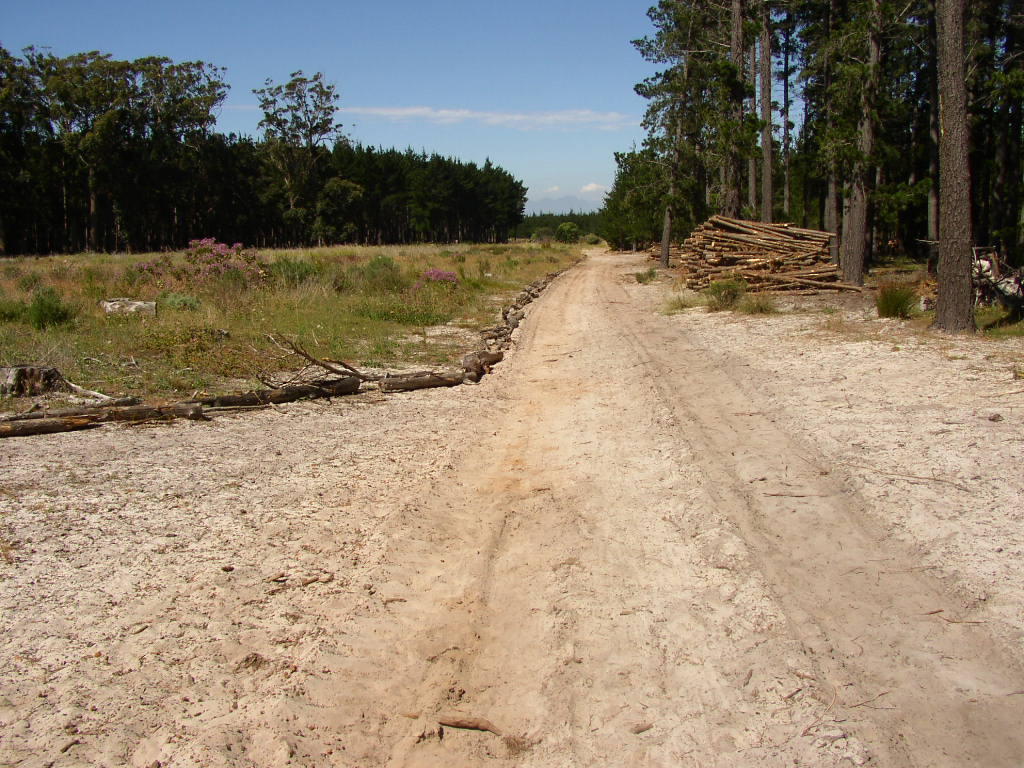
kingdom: Plantae
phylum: Tracheophyta
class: Liliopsida
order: Poales
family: Restionaceae
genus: Staberoha
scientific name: Staberoha distachyos
